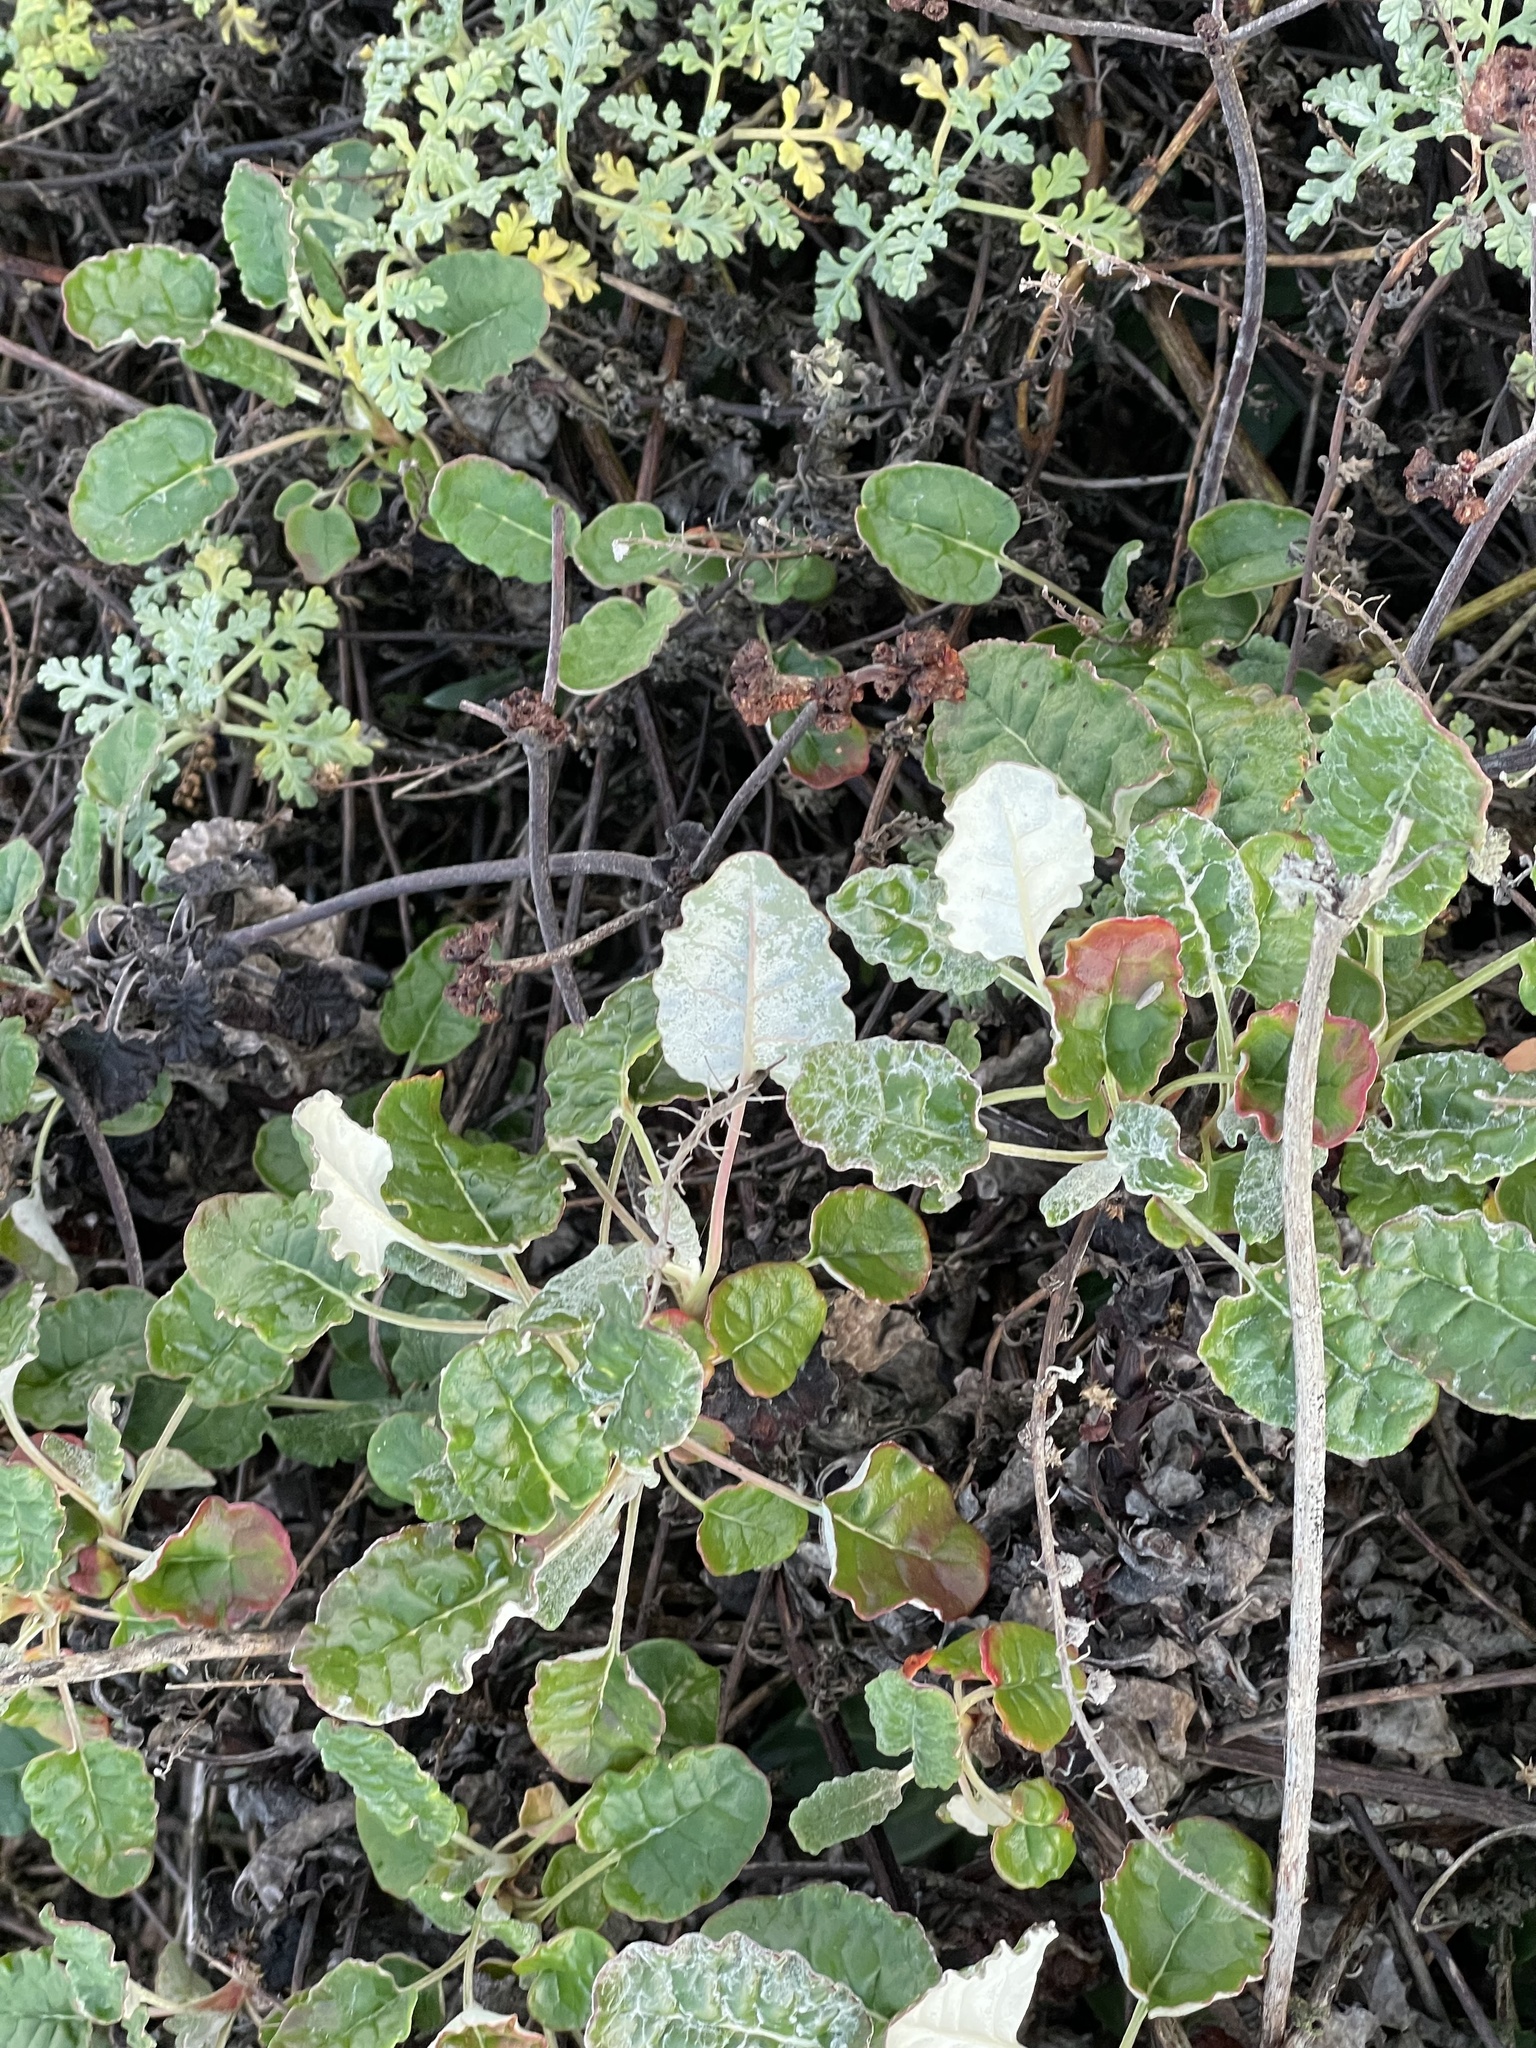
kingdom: Plantae
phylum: Tracheophyta
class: Magnoliopsida
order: Caryophyllales
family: Polygonaceae
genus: Eriogonum
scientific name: Eriogonum latifolium
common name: Seaside wild buckwheat
